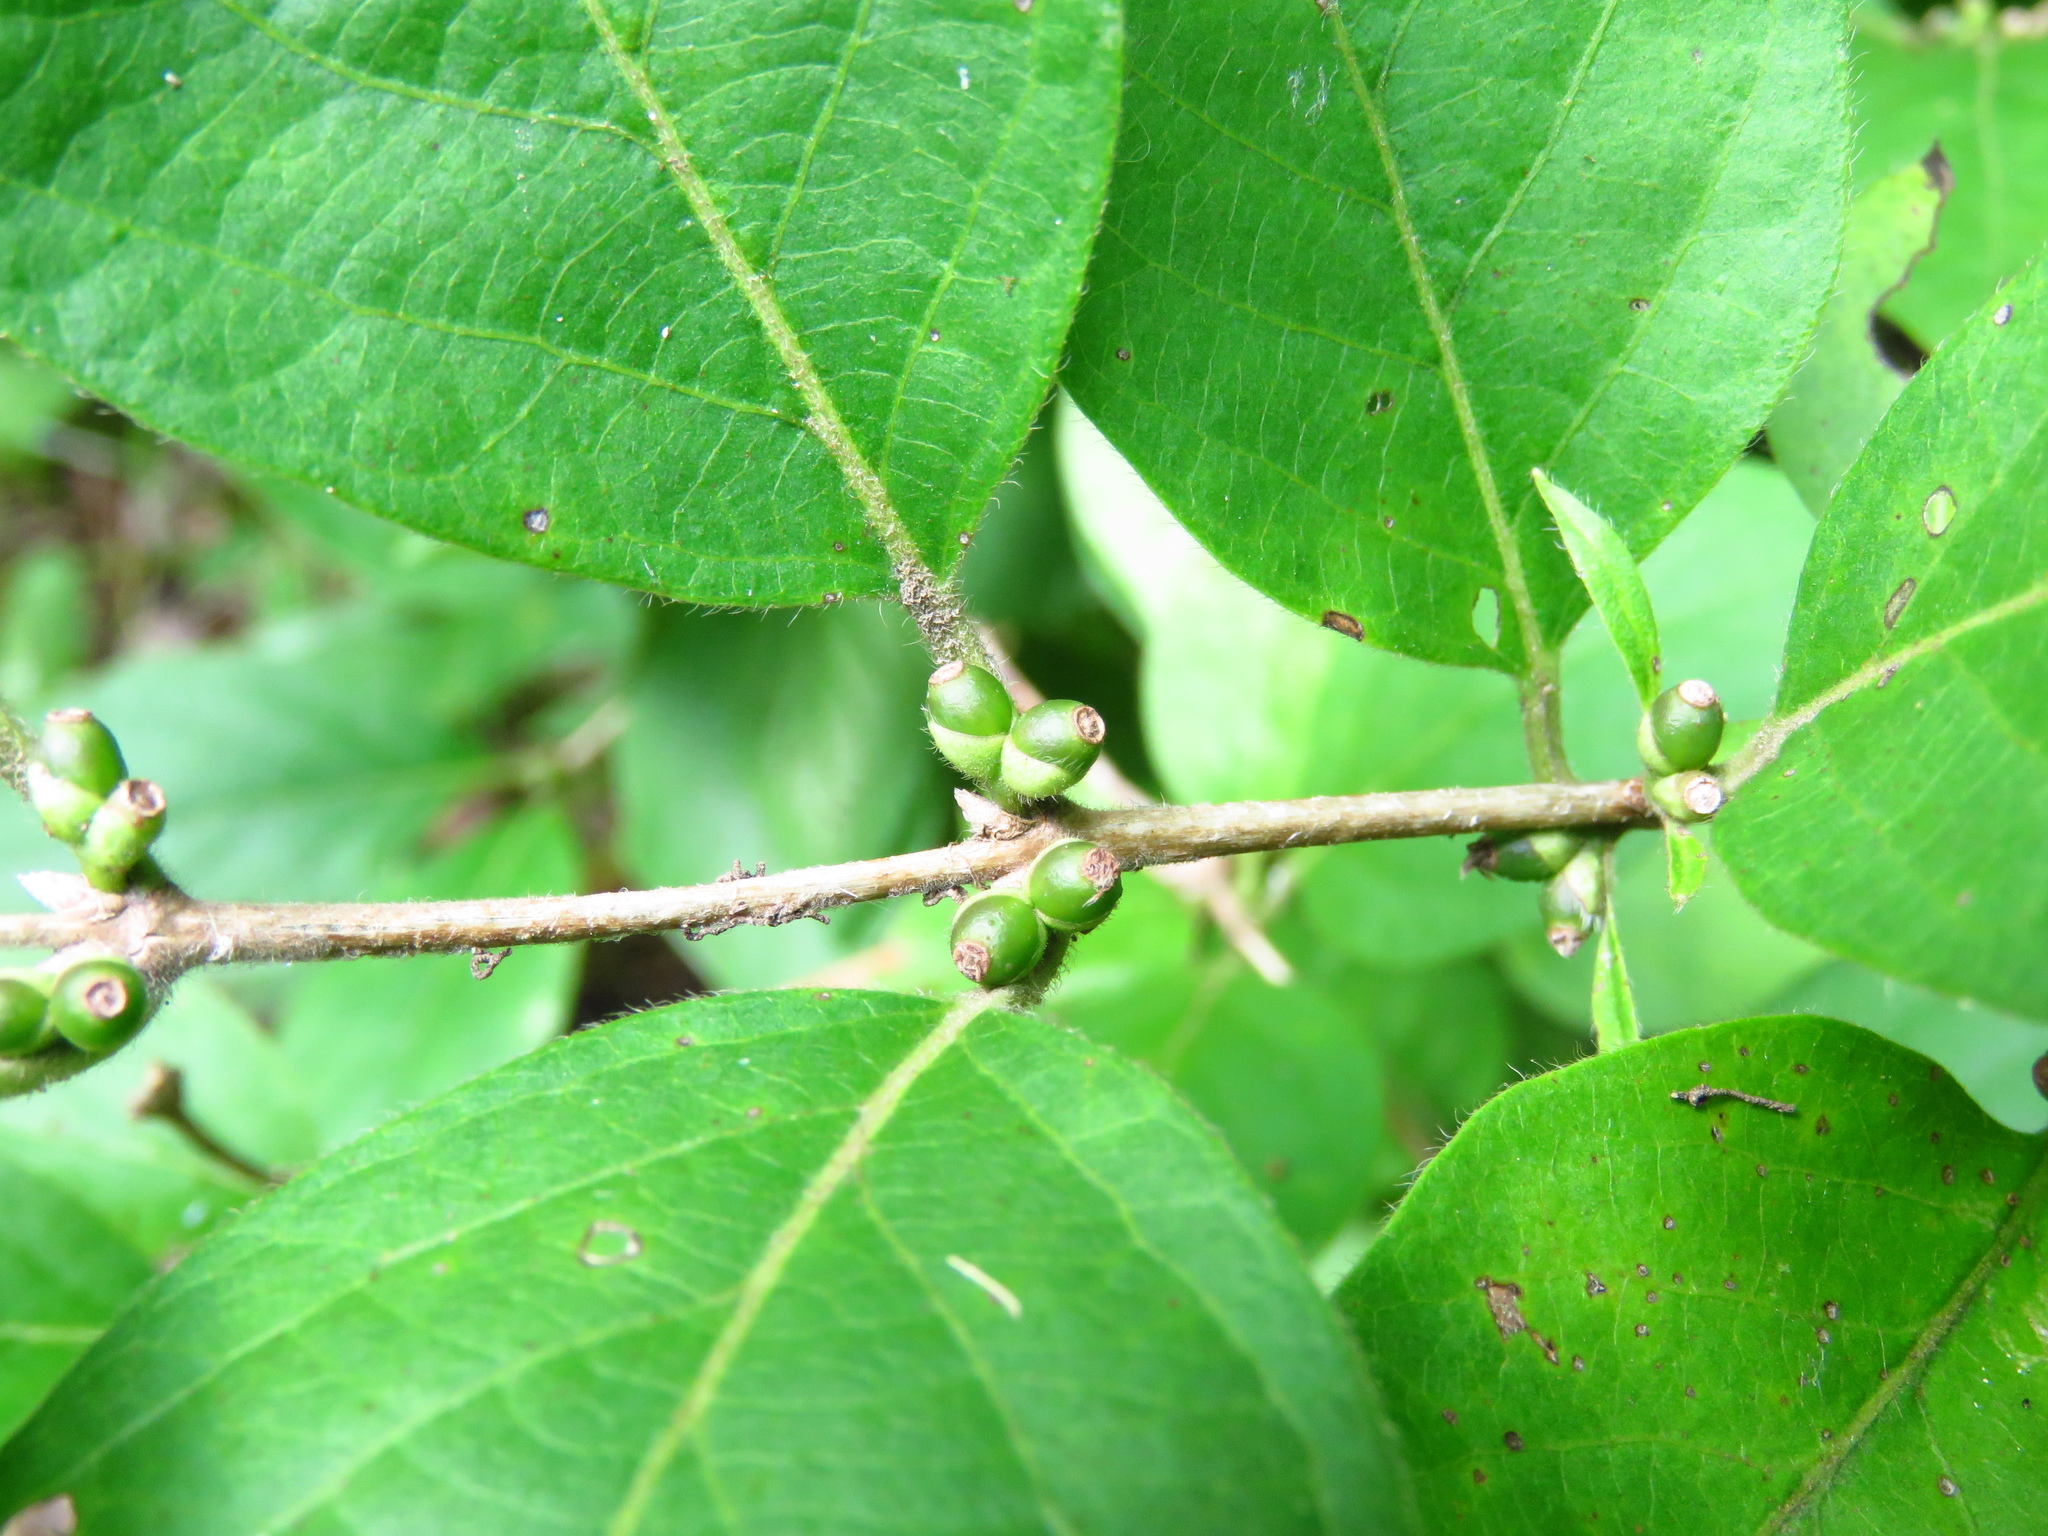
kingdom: Plantae
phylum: Tracheophyta
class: Magnoliopsida
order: Dipsacales
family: Caprifoliaceae
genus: Lonicera
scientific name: Lonicera maackii
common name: Amur honeysuckle
